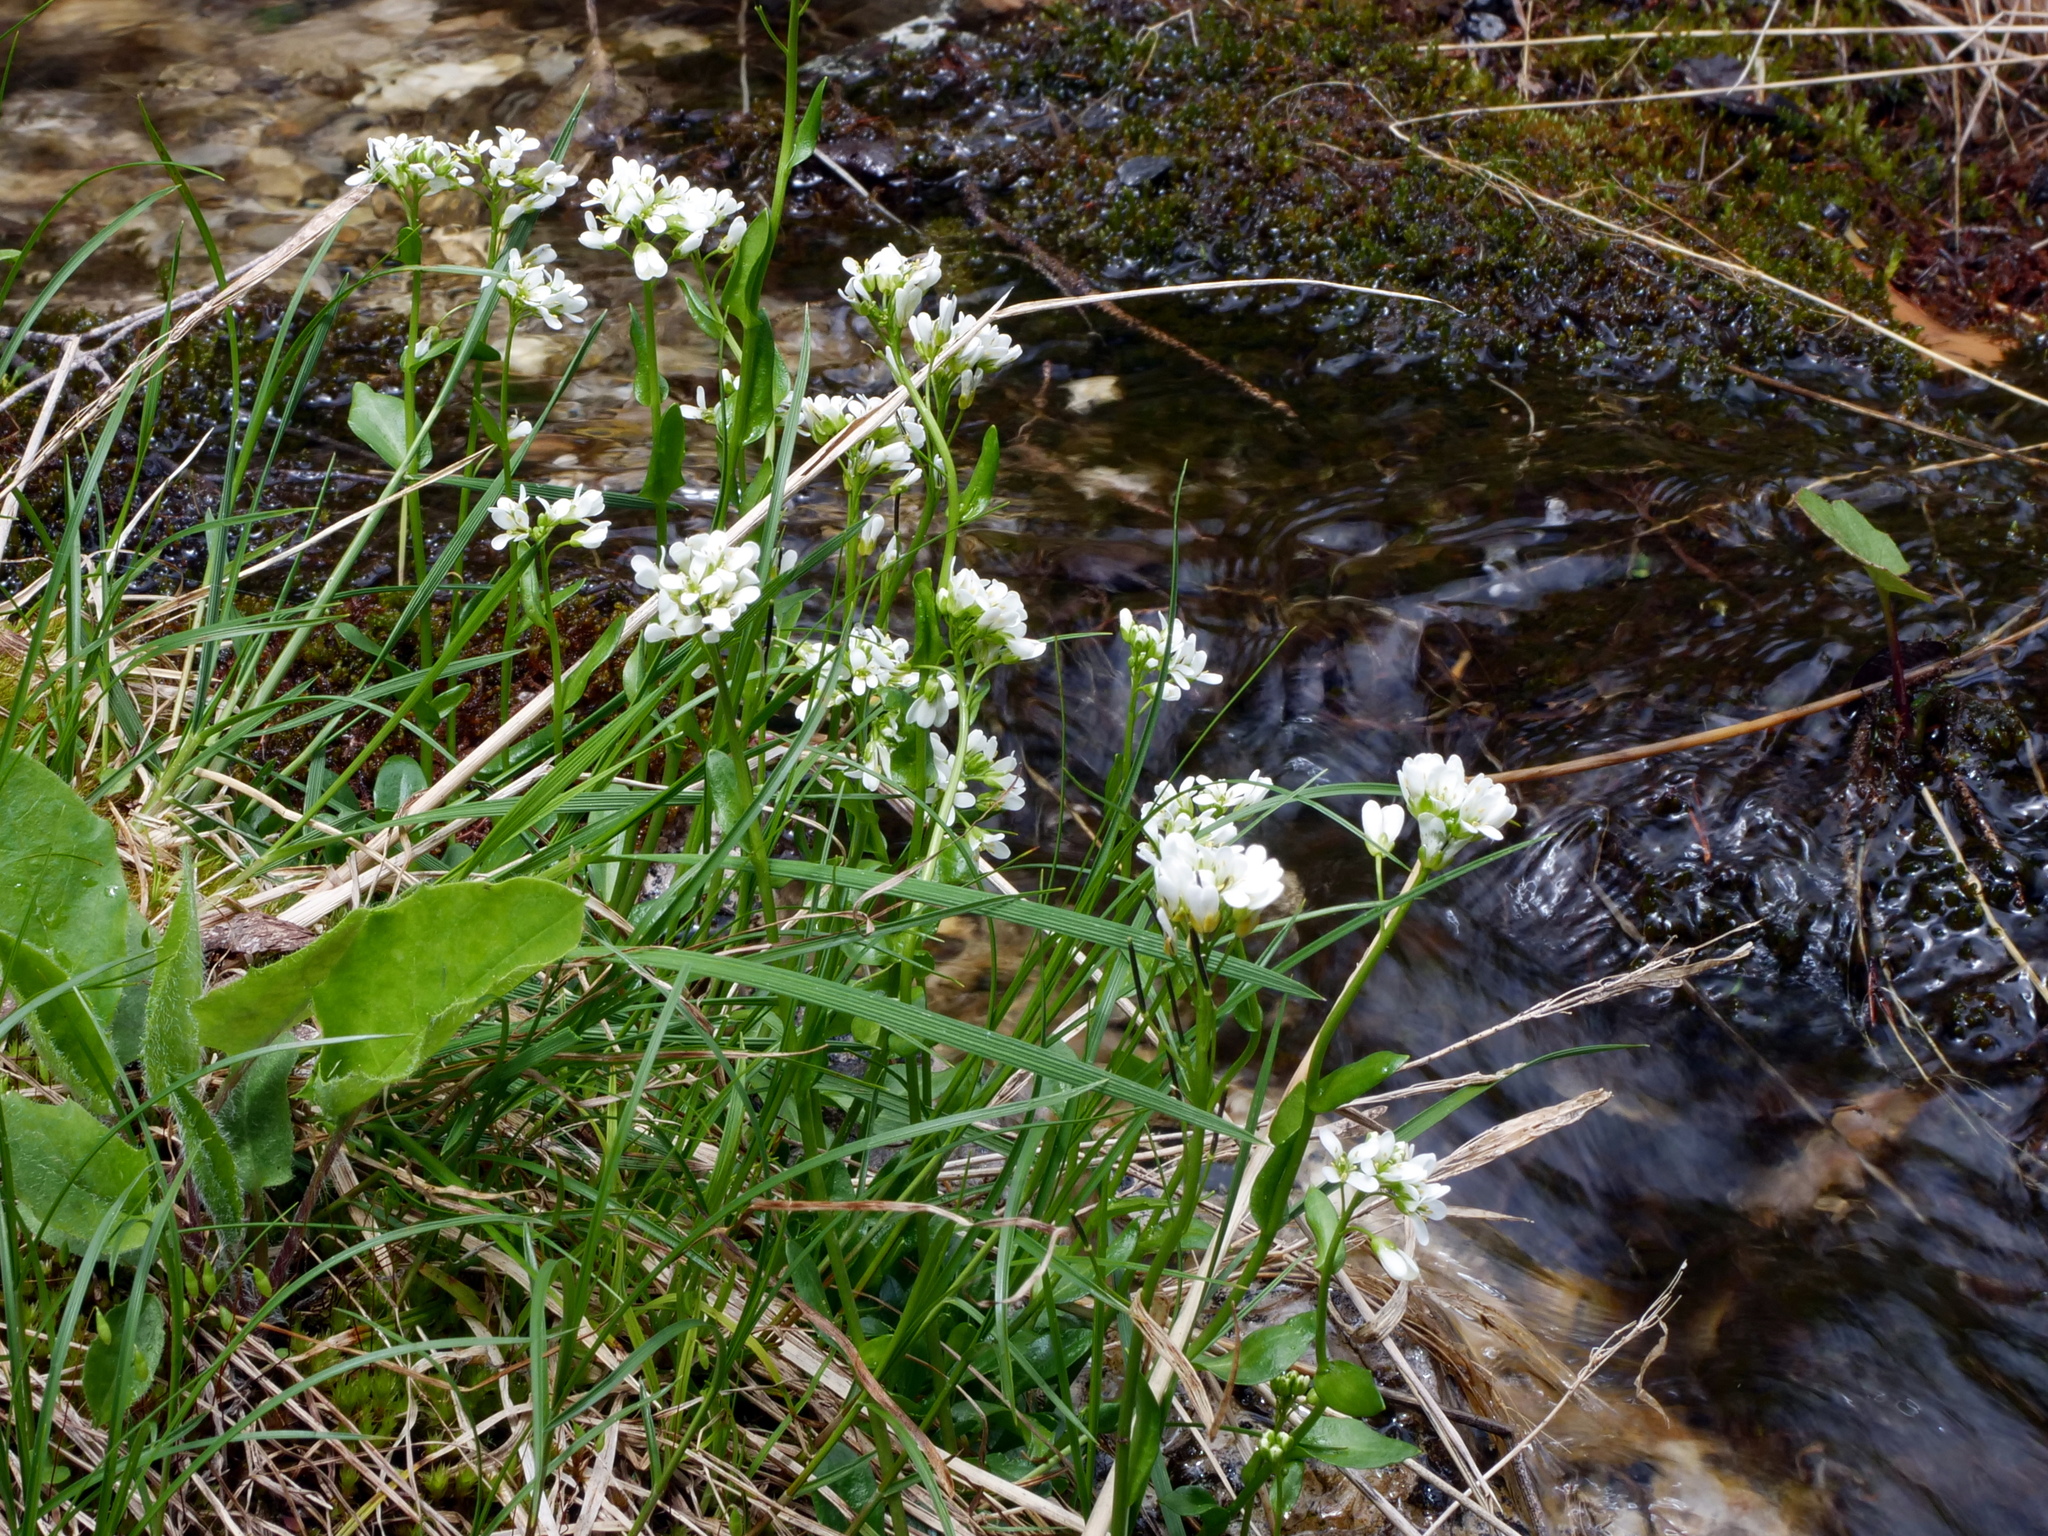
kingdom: Plantae
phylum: Tracheophyta
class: Magnoliopsida
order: Brassicales
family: Brassicaceae
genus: Arabis
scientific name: Arabis soyeri
